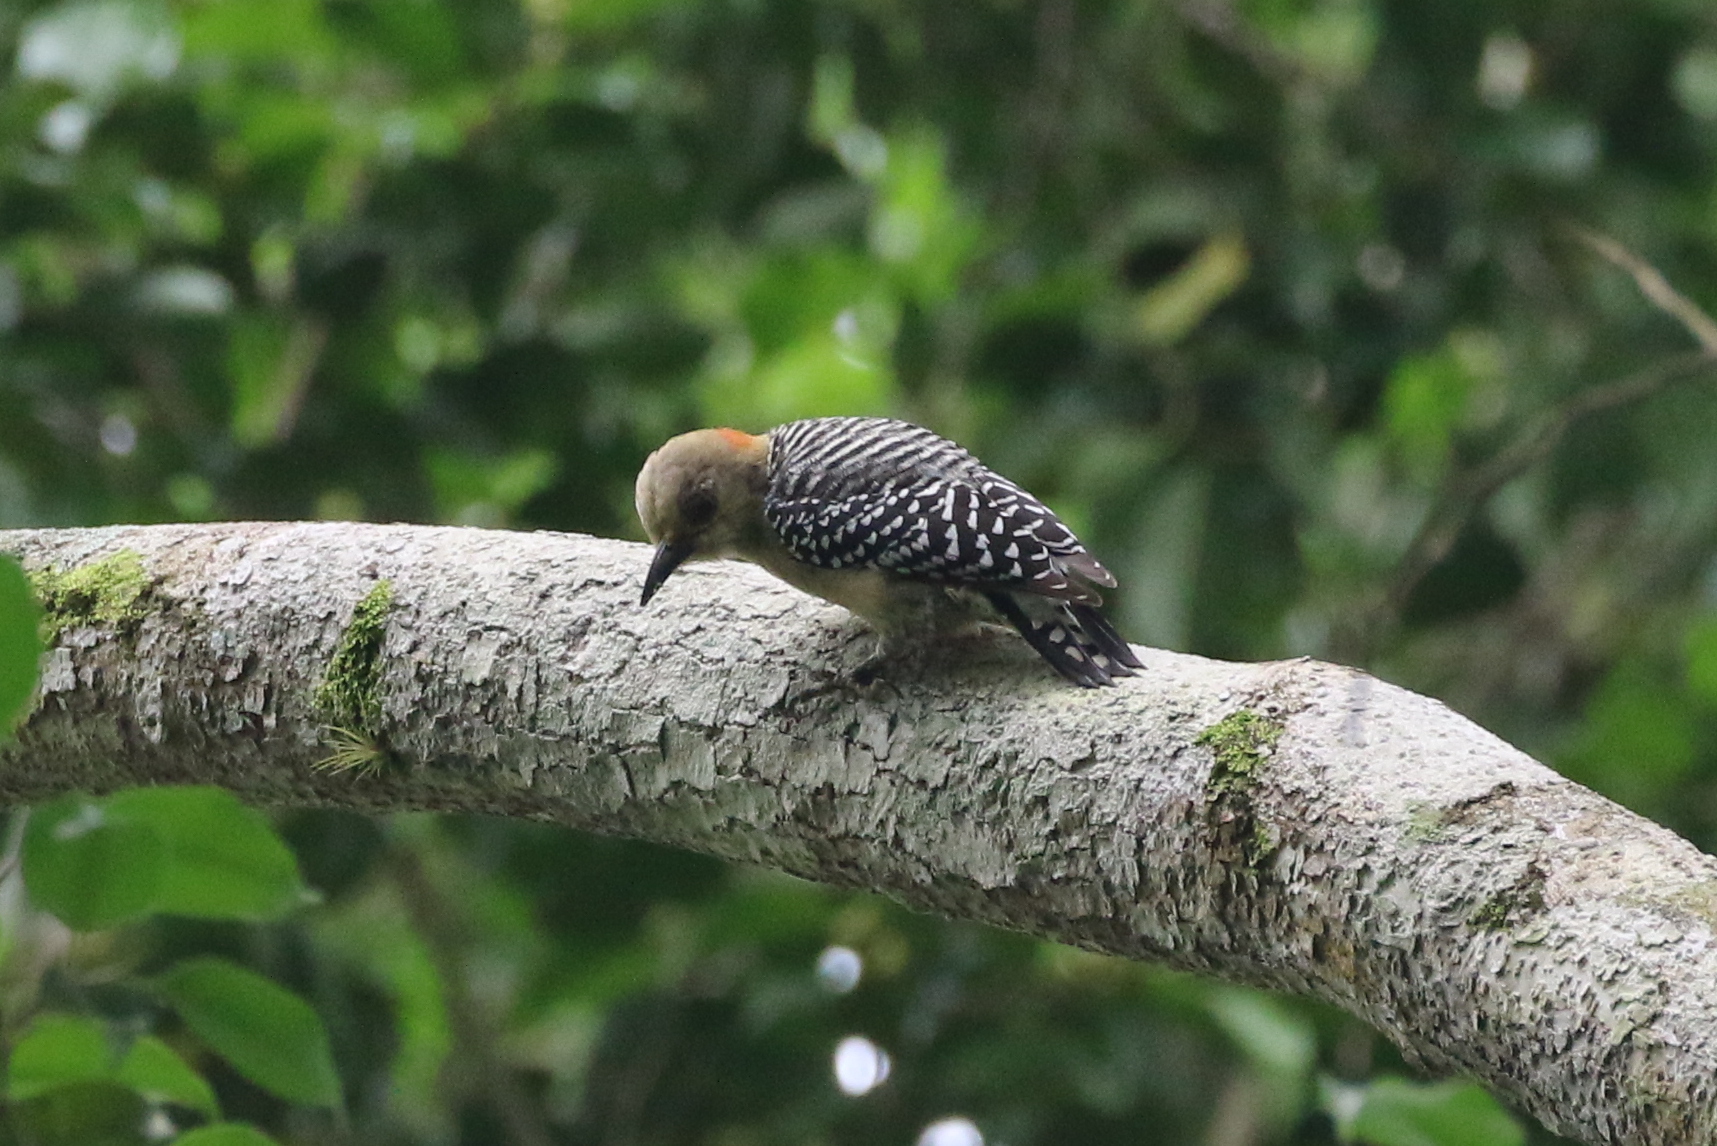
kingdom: Animalia
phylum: Chordata
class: Aves
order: Piciformes
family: Picidae
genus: Melanerpes
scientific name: Melanerpes rubricapillus
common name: Red-crowned woodpecker
